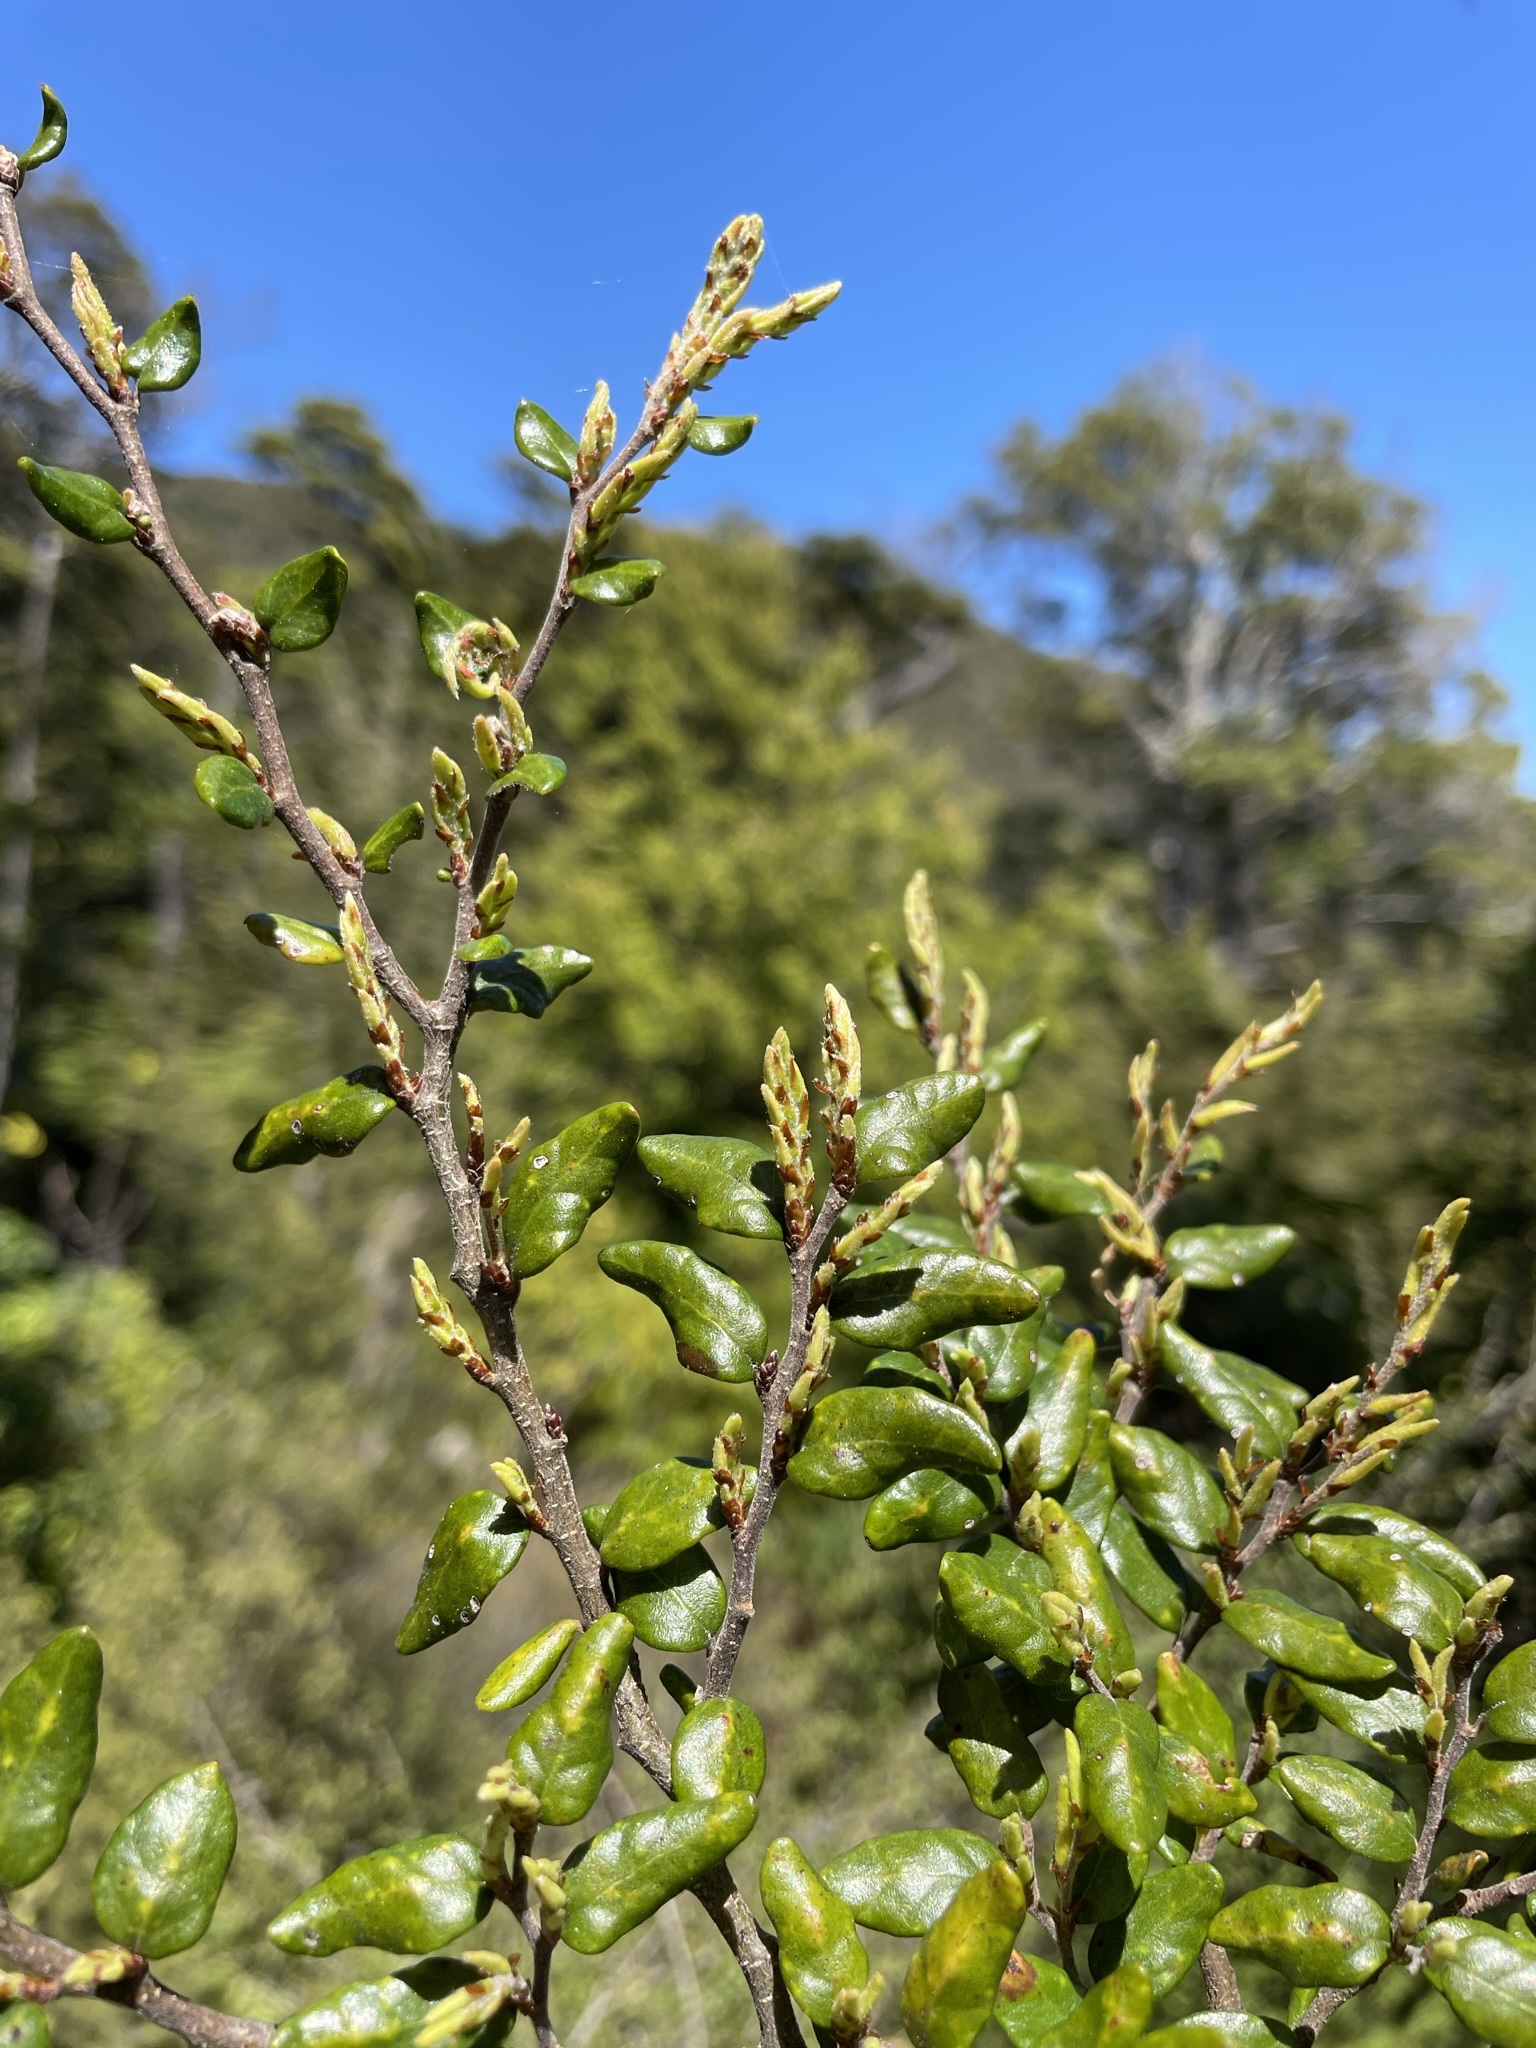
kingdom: Plantae
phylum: Tracheophyta
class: Magnoliopsida
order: Fagales
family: Nothofagaceae
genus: Nothofagus
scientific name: Nothofagus solandri
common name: Black beech
